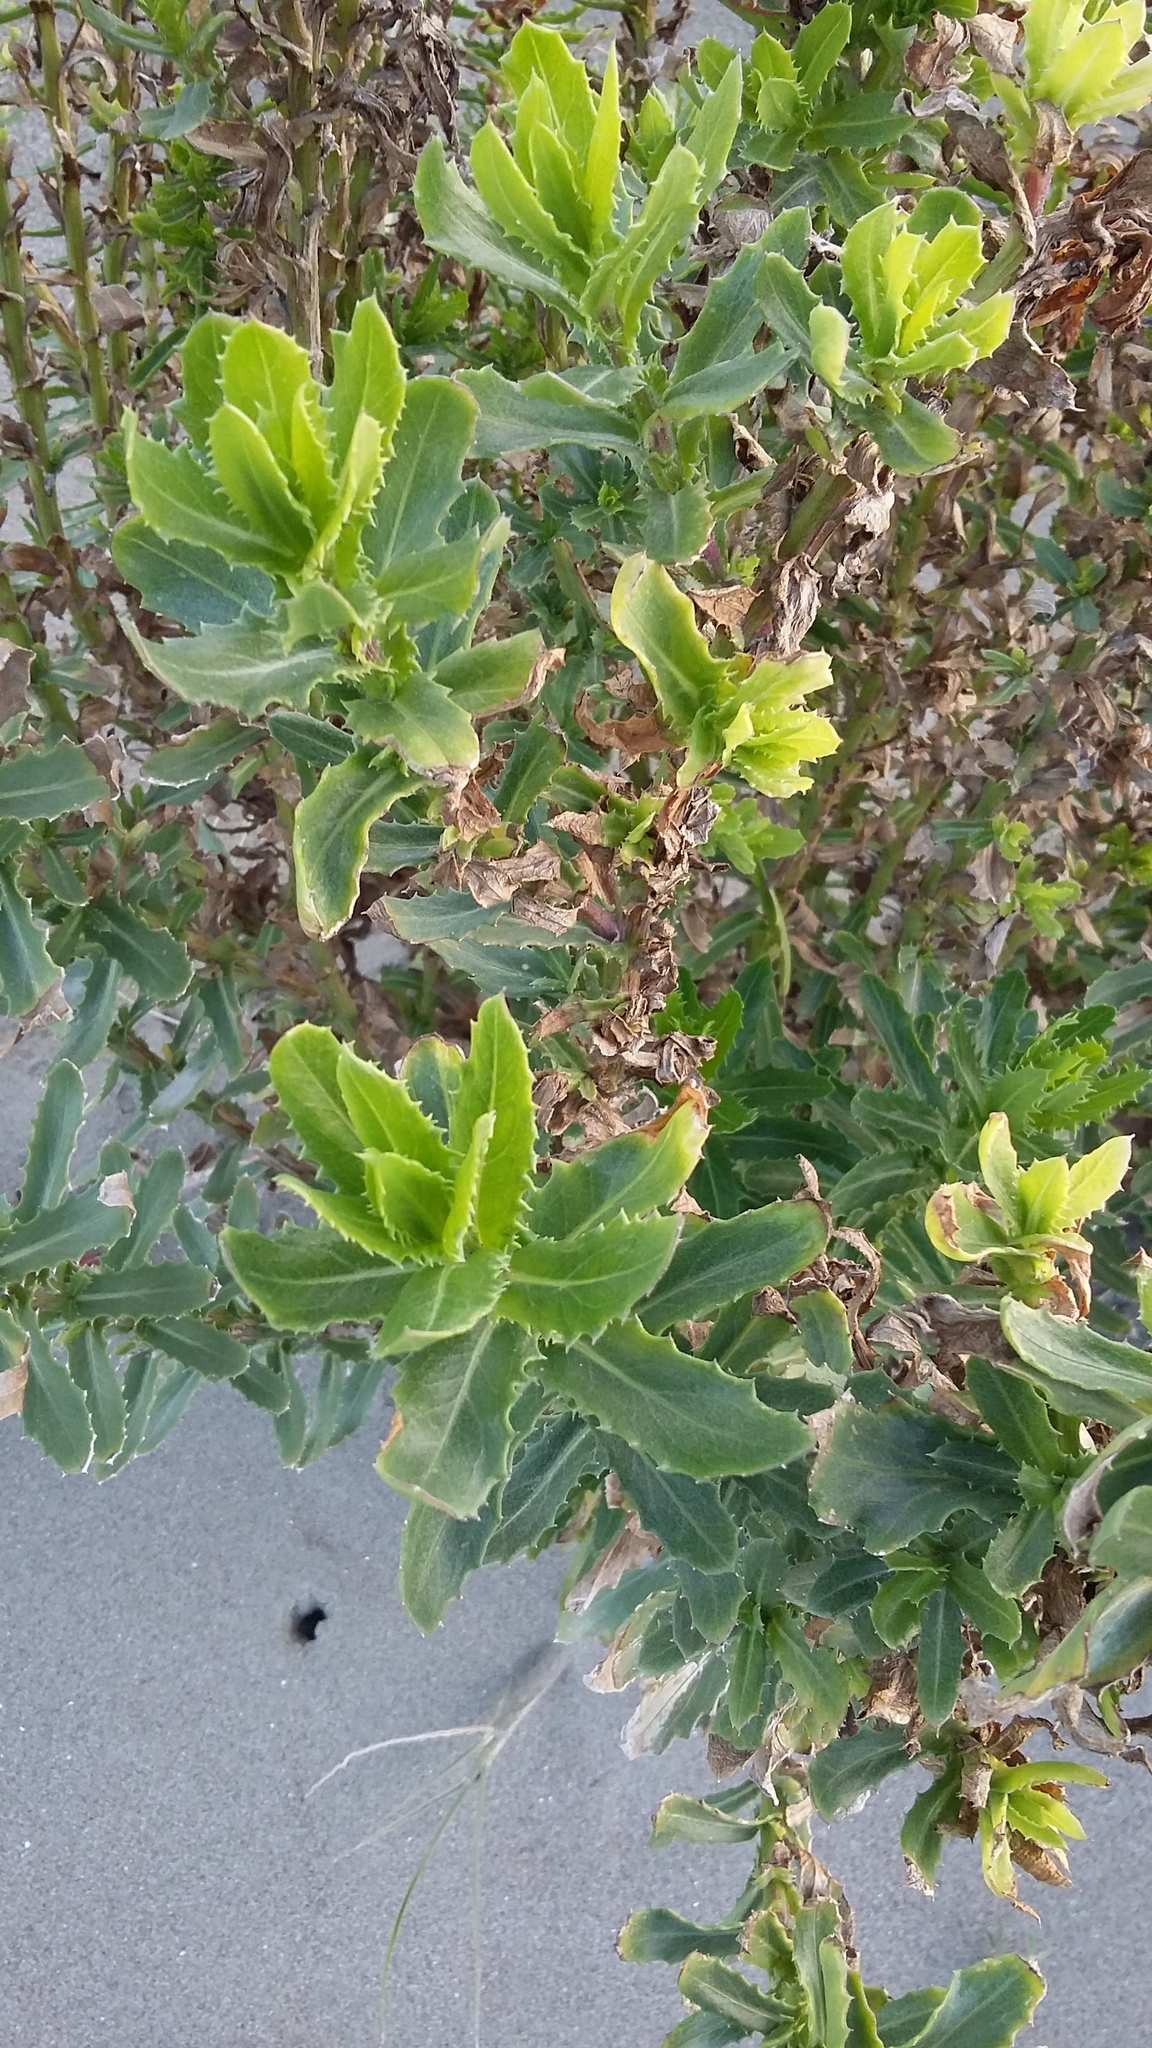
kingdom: Plantae
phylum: Tracheophyta
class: Magnoliopsida
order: Asterales
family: Asteraceae
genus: Senecio
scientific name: Senecio glastifolius
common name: Woad-leaved ragwort
